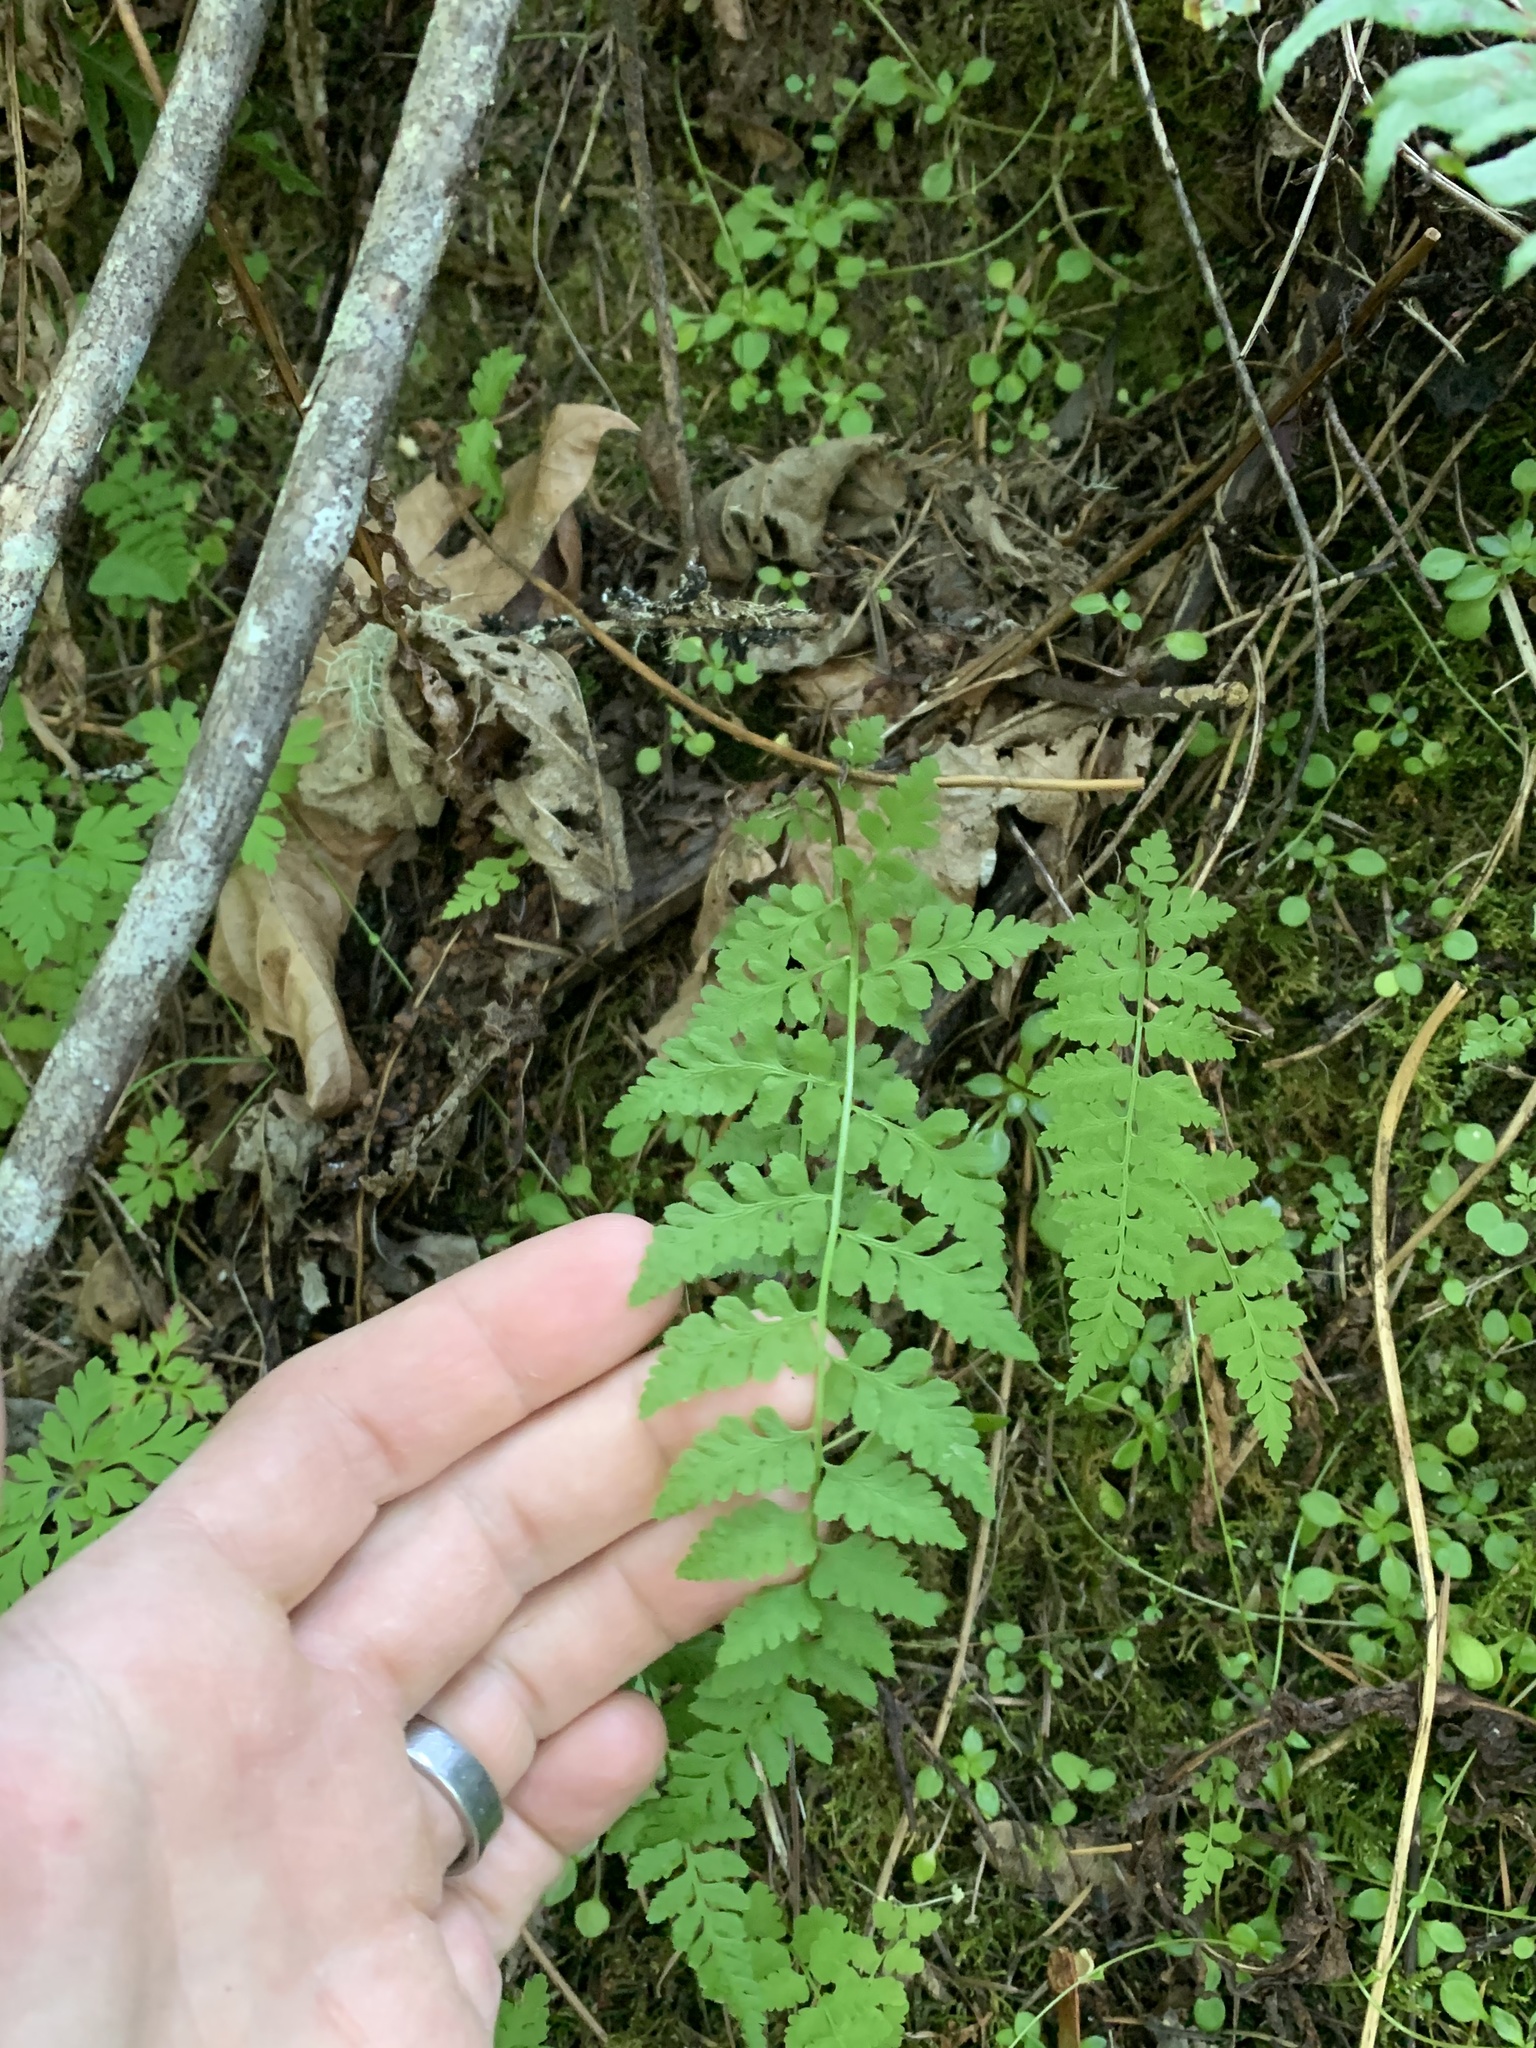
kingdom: Plantae
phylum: Tracheophyta
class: Polypodiopsida
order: Polypodiales
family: Cystopteridaceae
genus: Cystopteris
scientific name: Cystopteris fragilis
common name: Brittle bladder fern
